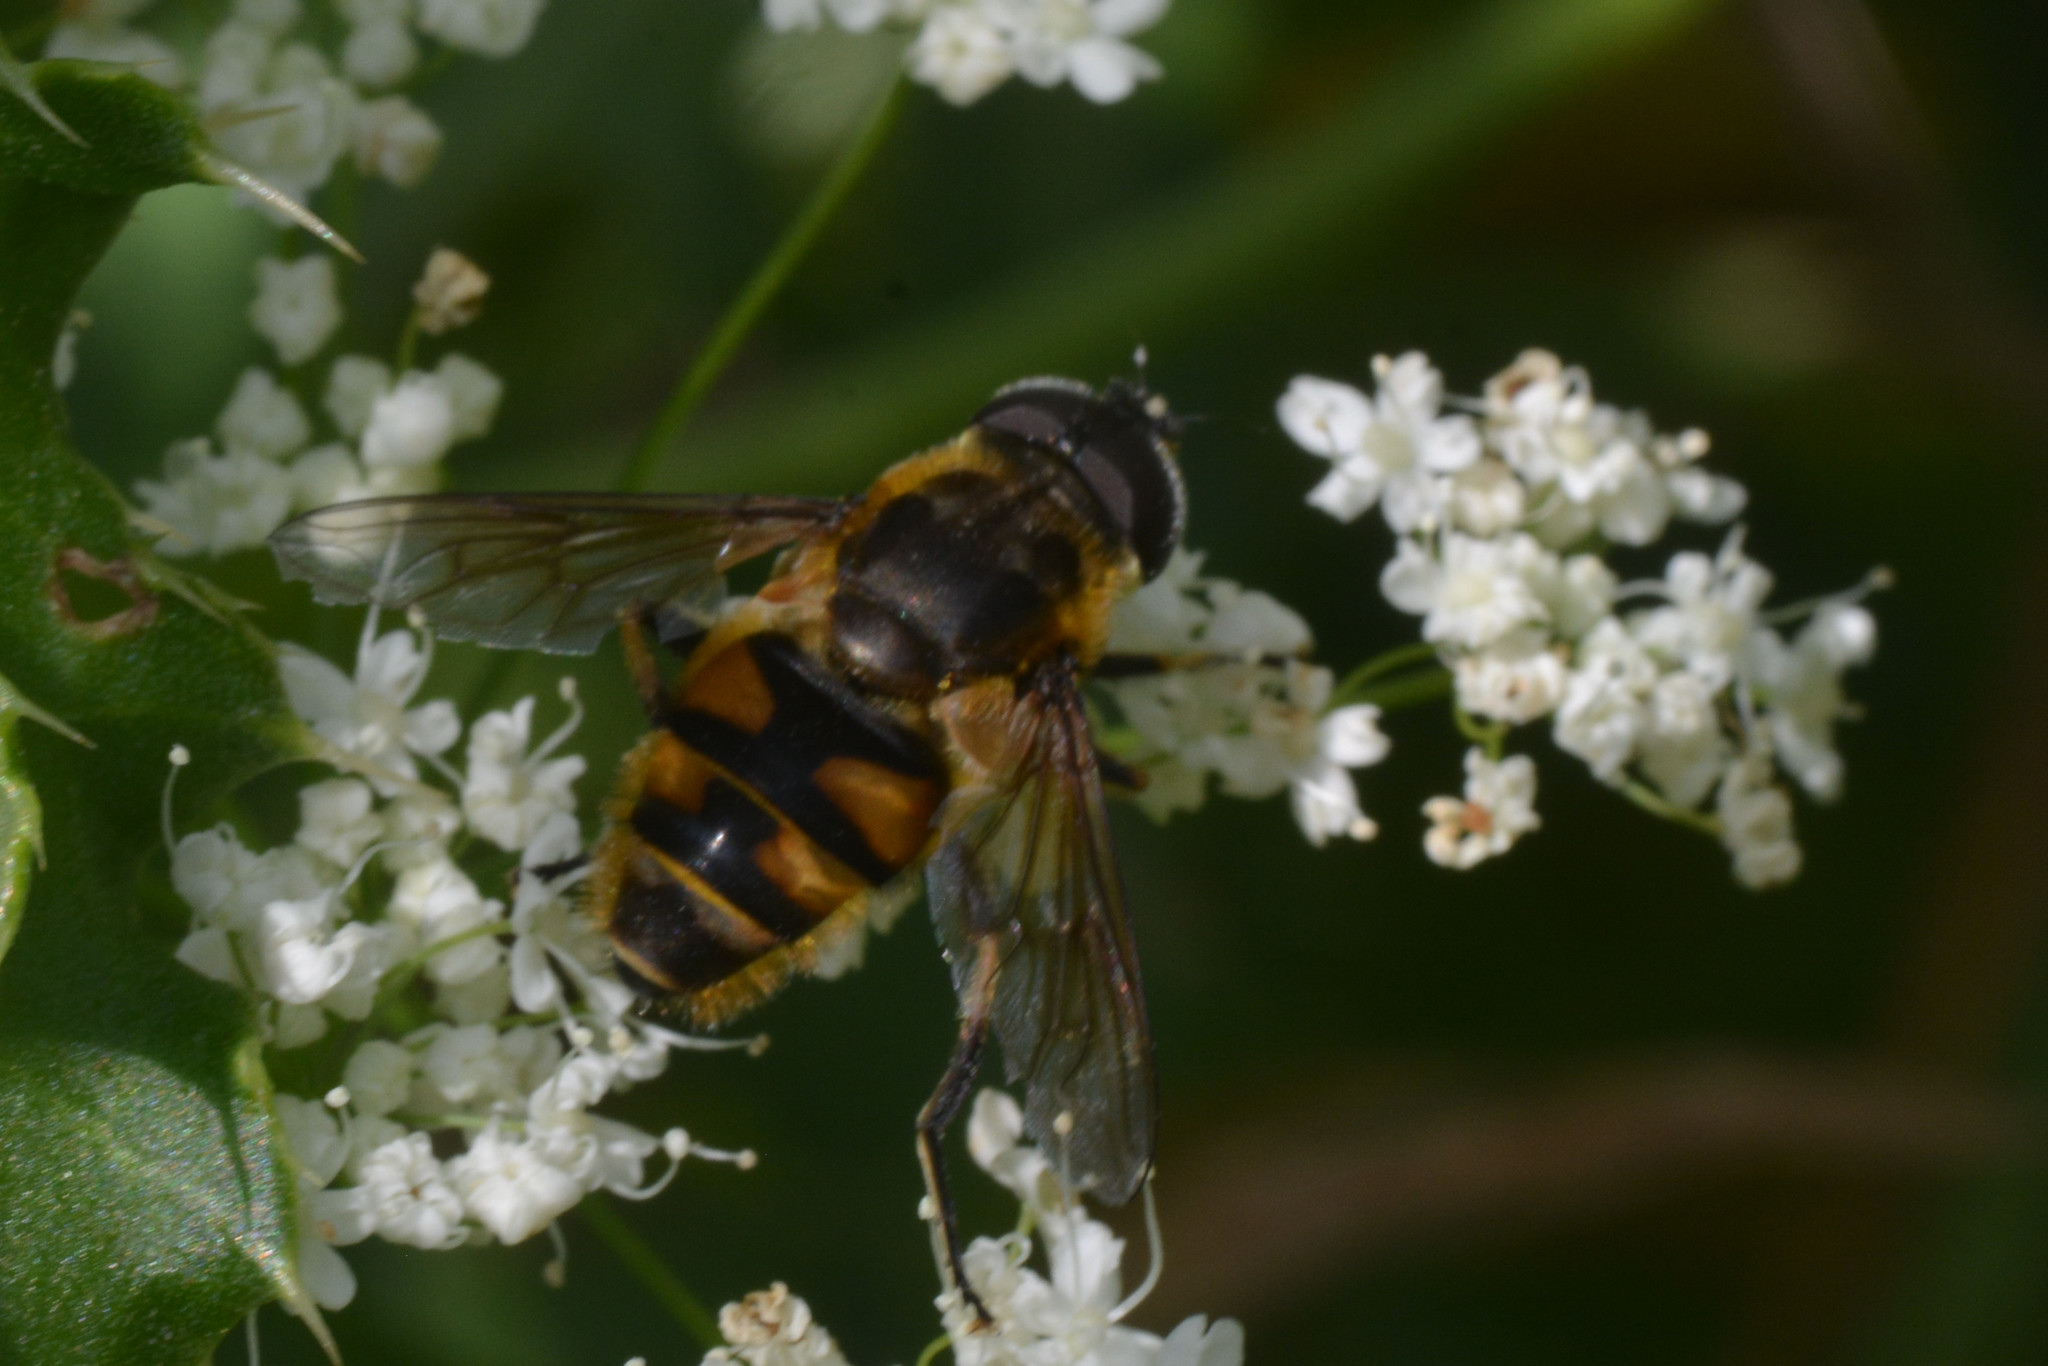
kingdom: Animalia
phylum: Arthropoda
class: Insecta
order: Diptera
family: Syrphidae
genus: Myathropa
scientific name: Myathropa florea
